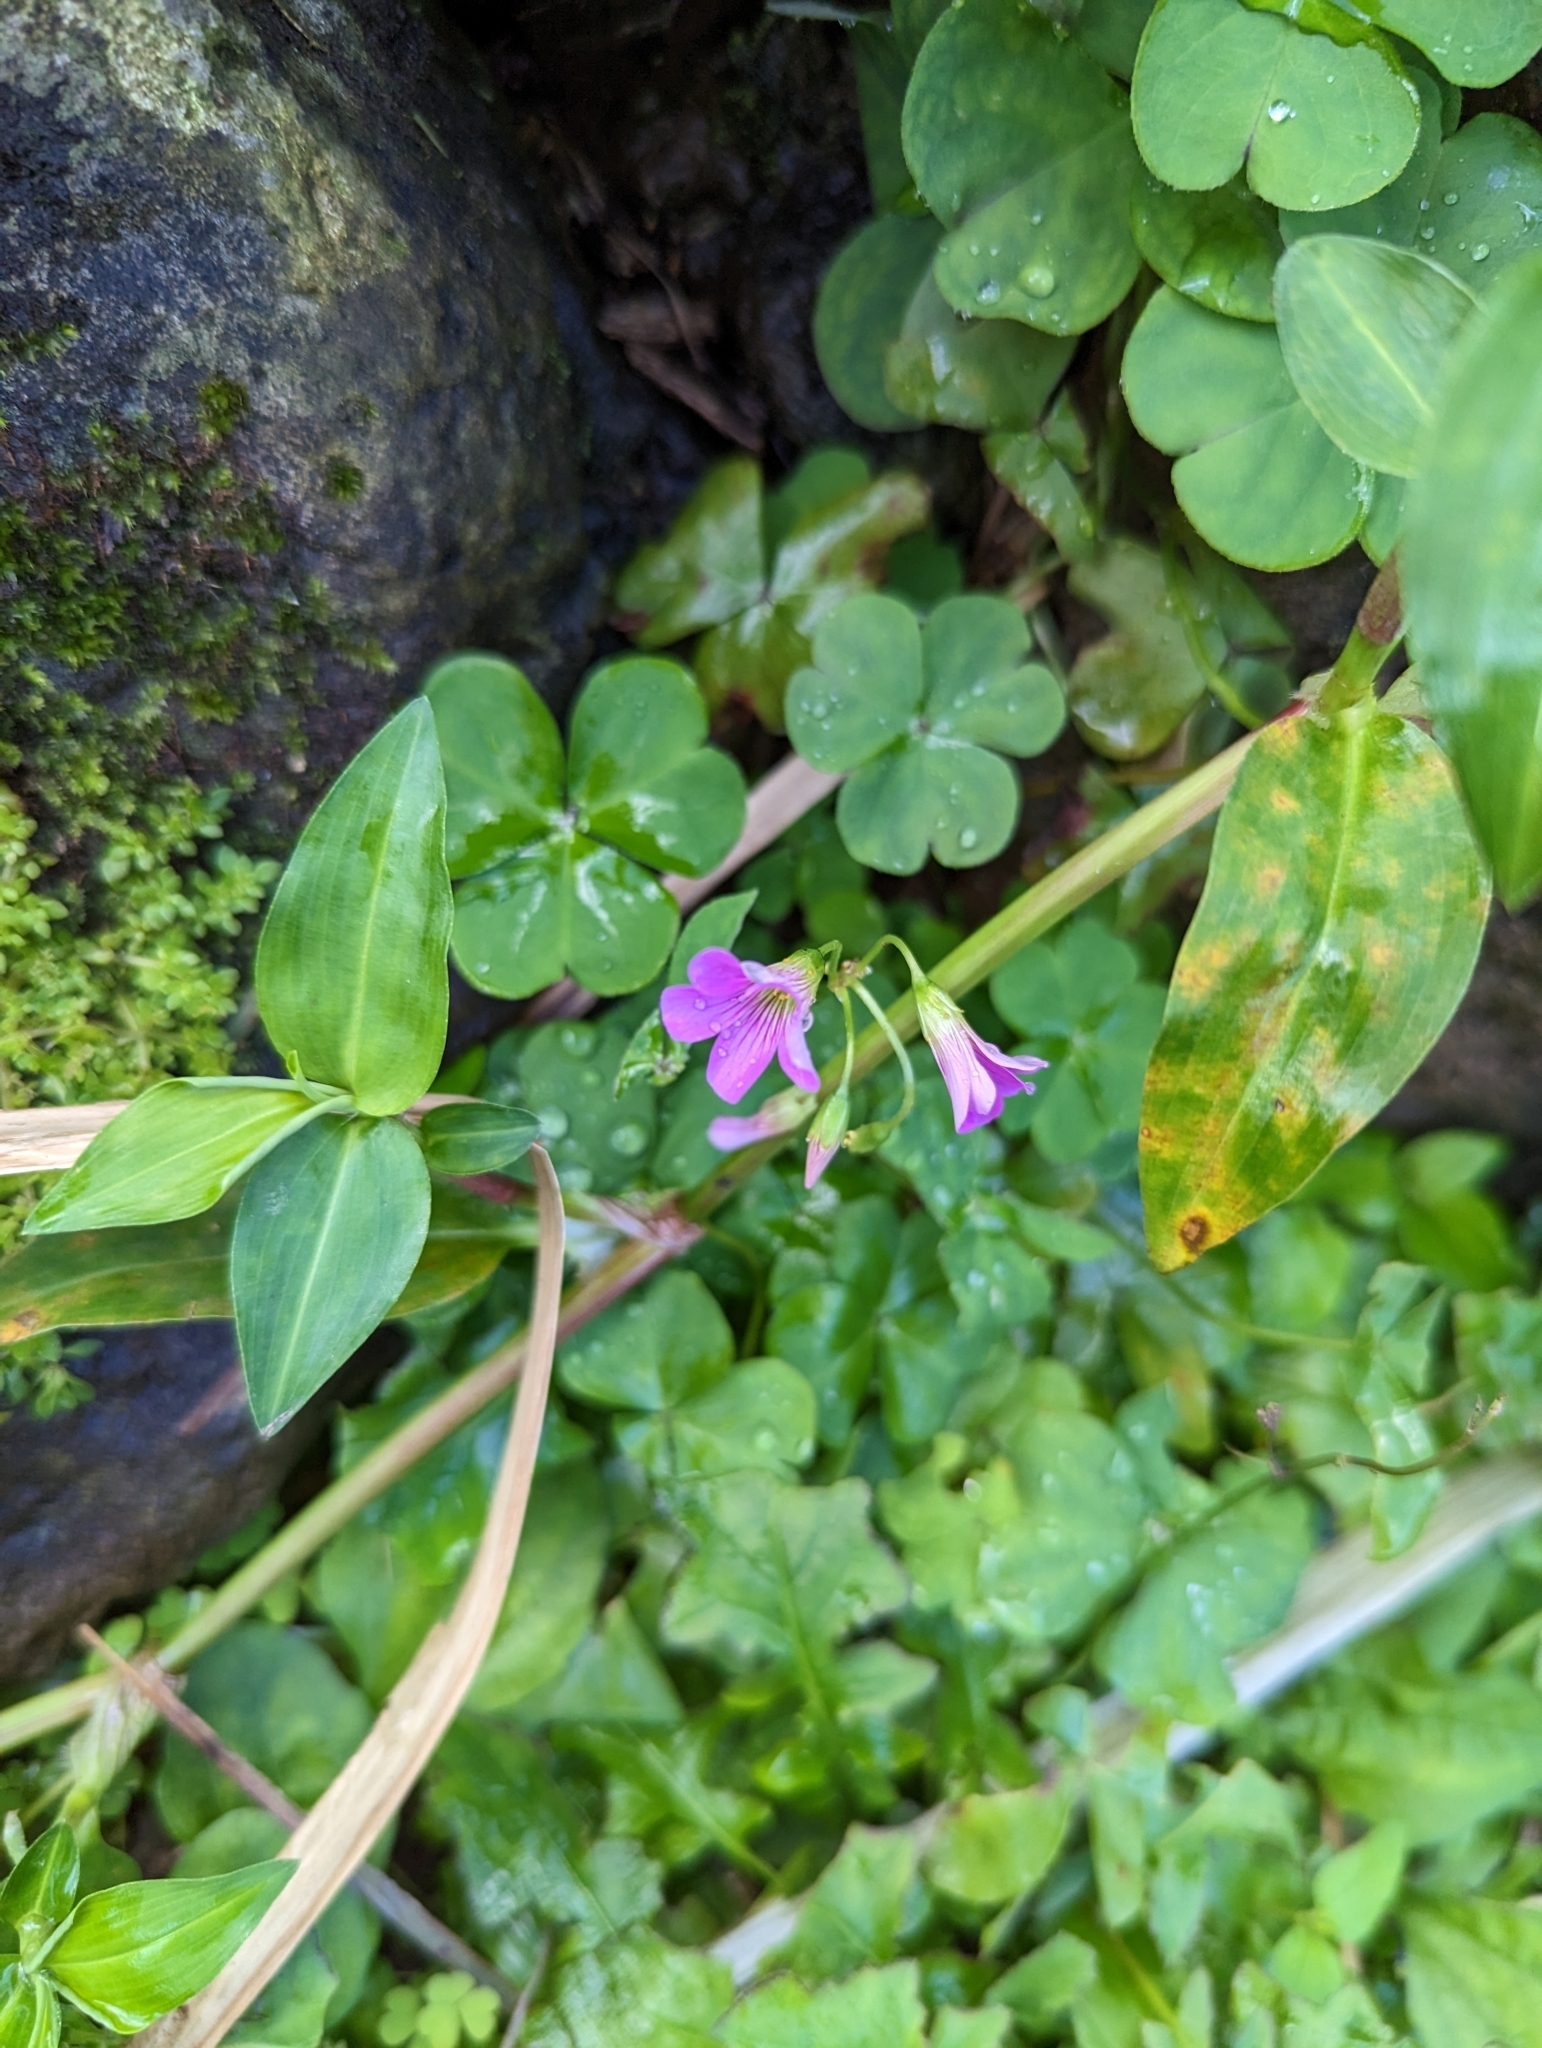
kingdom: Plantae
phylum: Tracheophyta
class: Magnoliopsida
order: Oxalidales
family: Oxalidaceae
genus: Oxalis
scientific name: Oxalis debilis
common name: Large-flowered pink-sorrel
